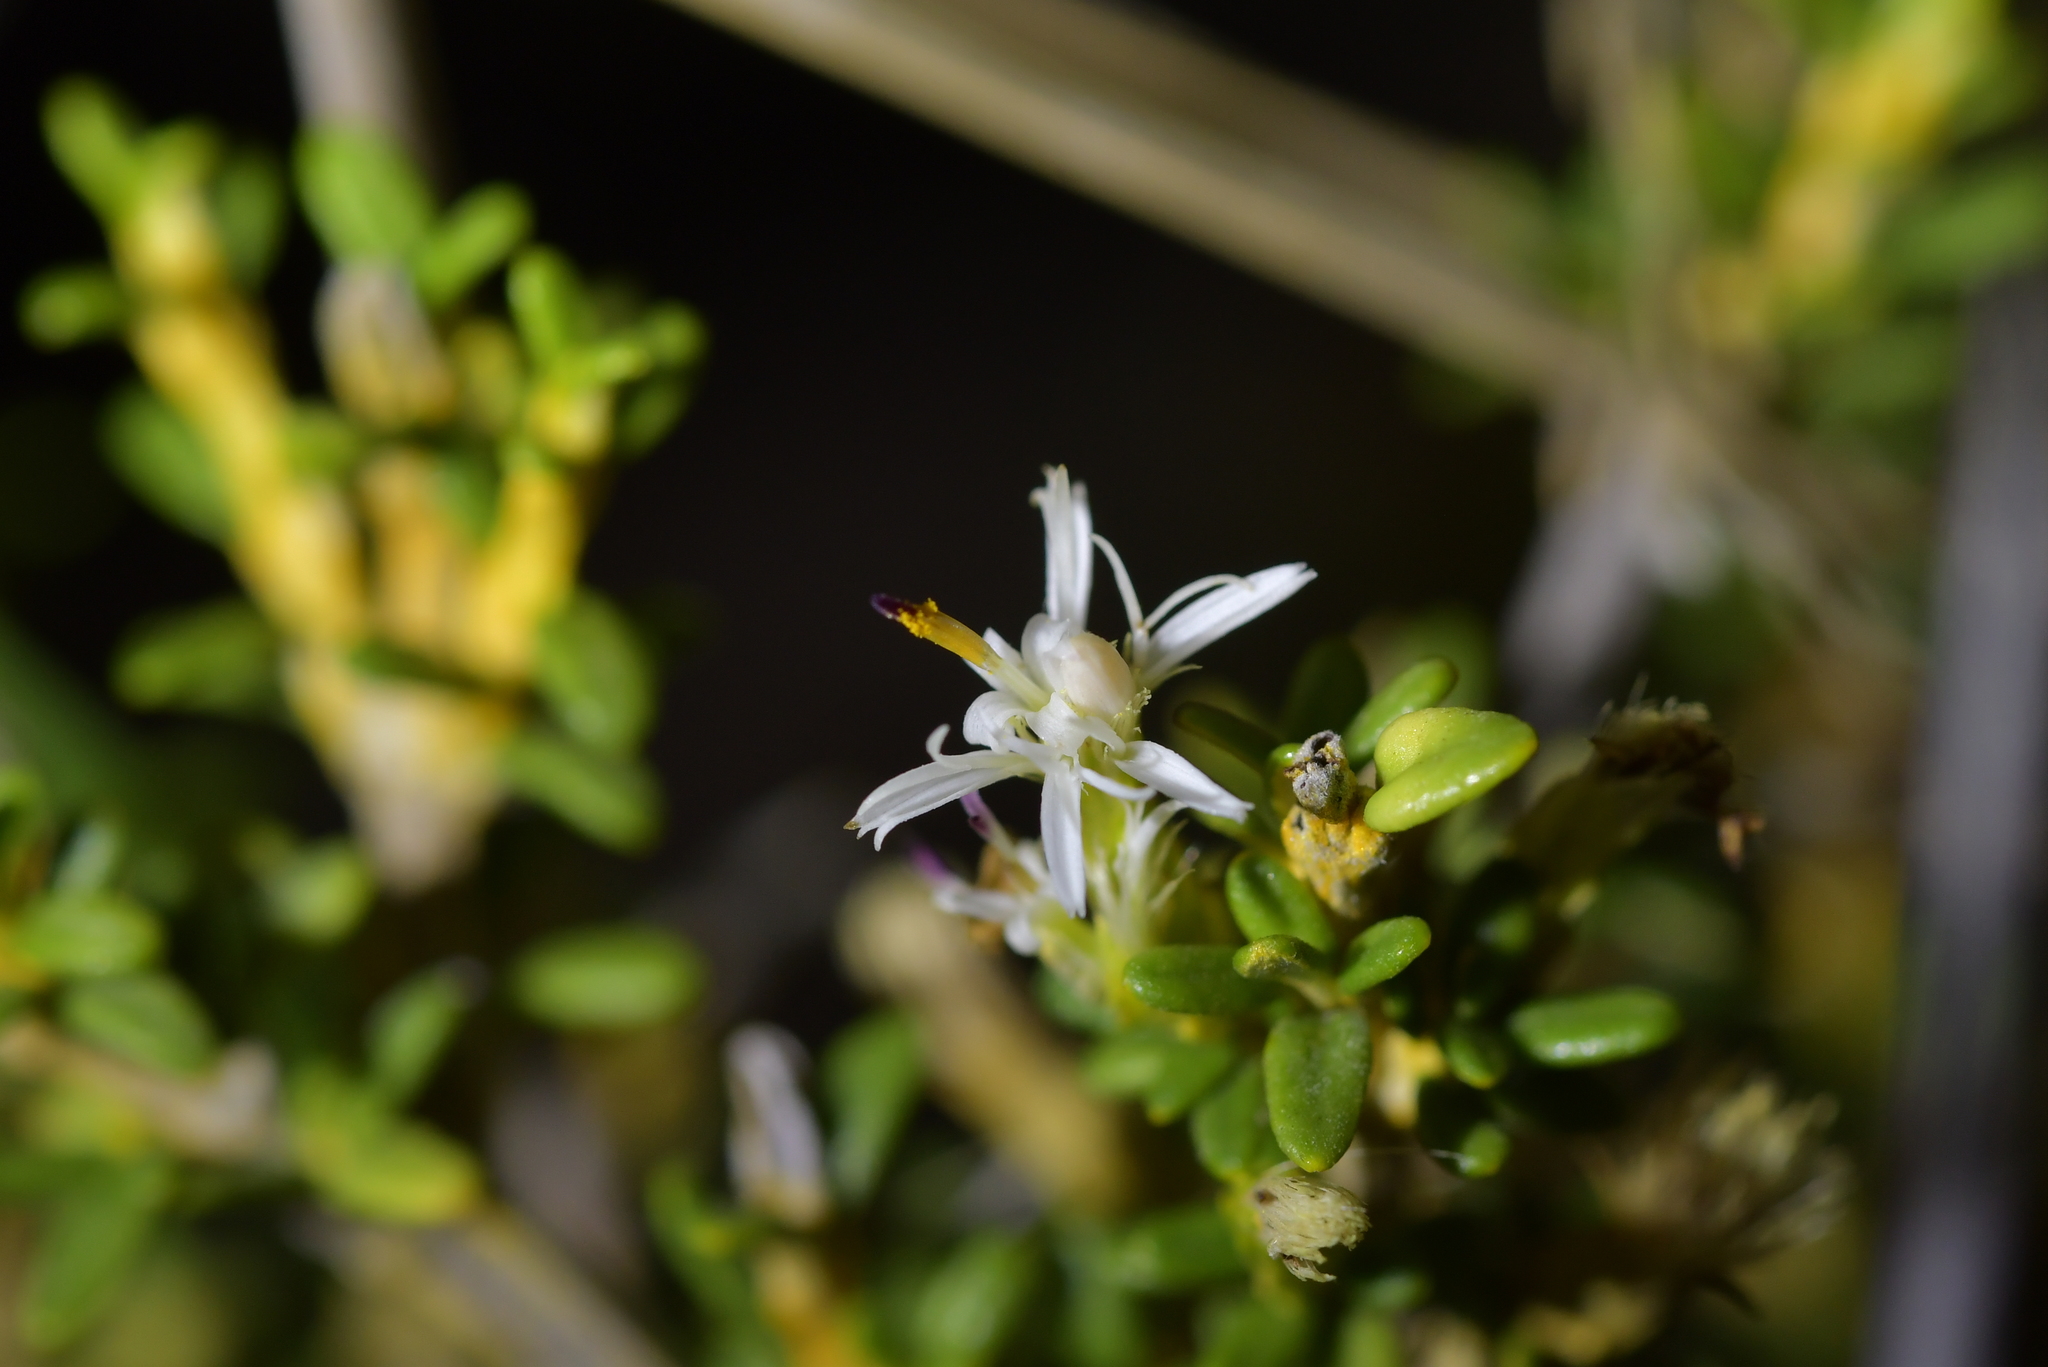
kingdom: Plantae
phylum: Tracheophyta
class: Magnoliopsida
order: Asterales
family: Asteraceae
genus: Olearia
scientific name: Olearia solandri
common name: Coastal daisybush
